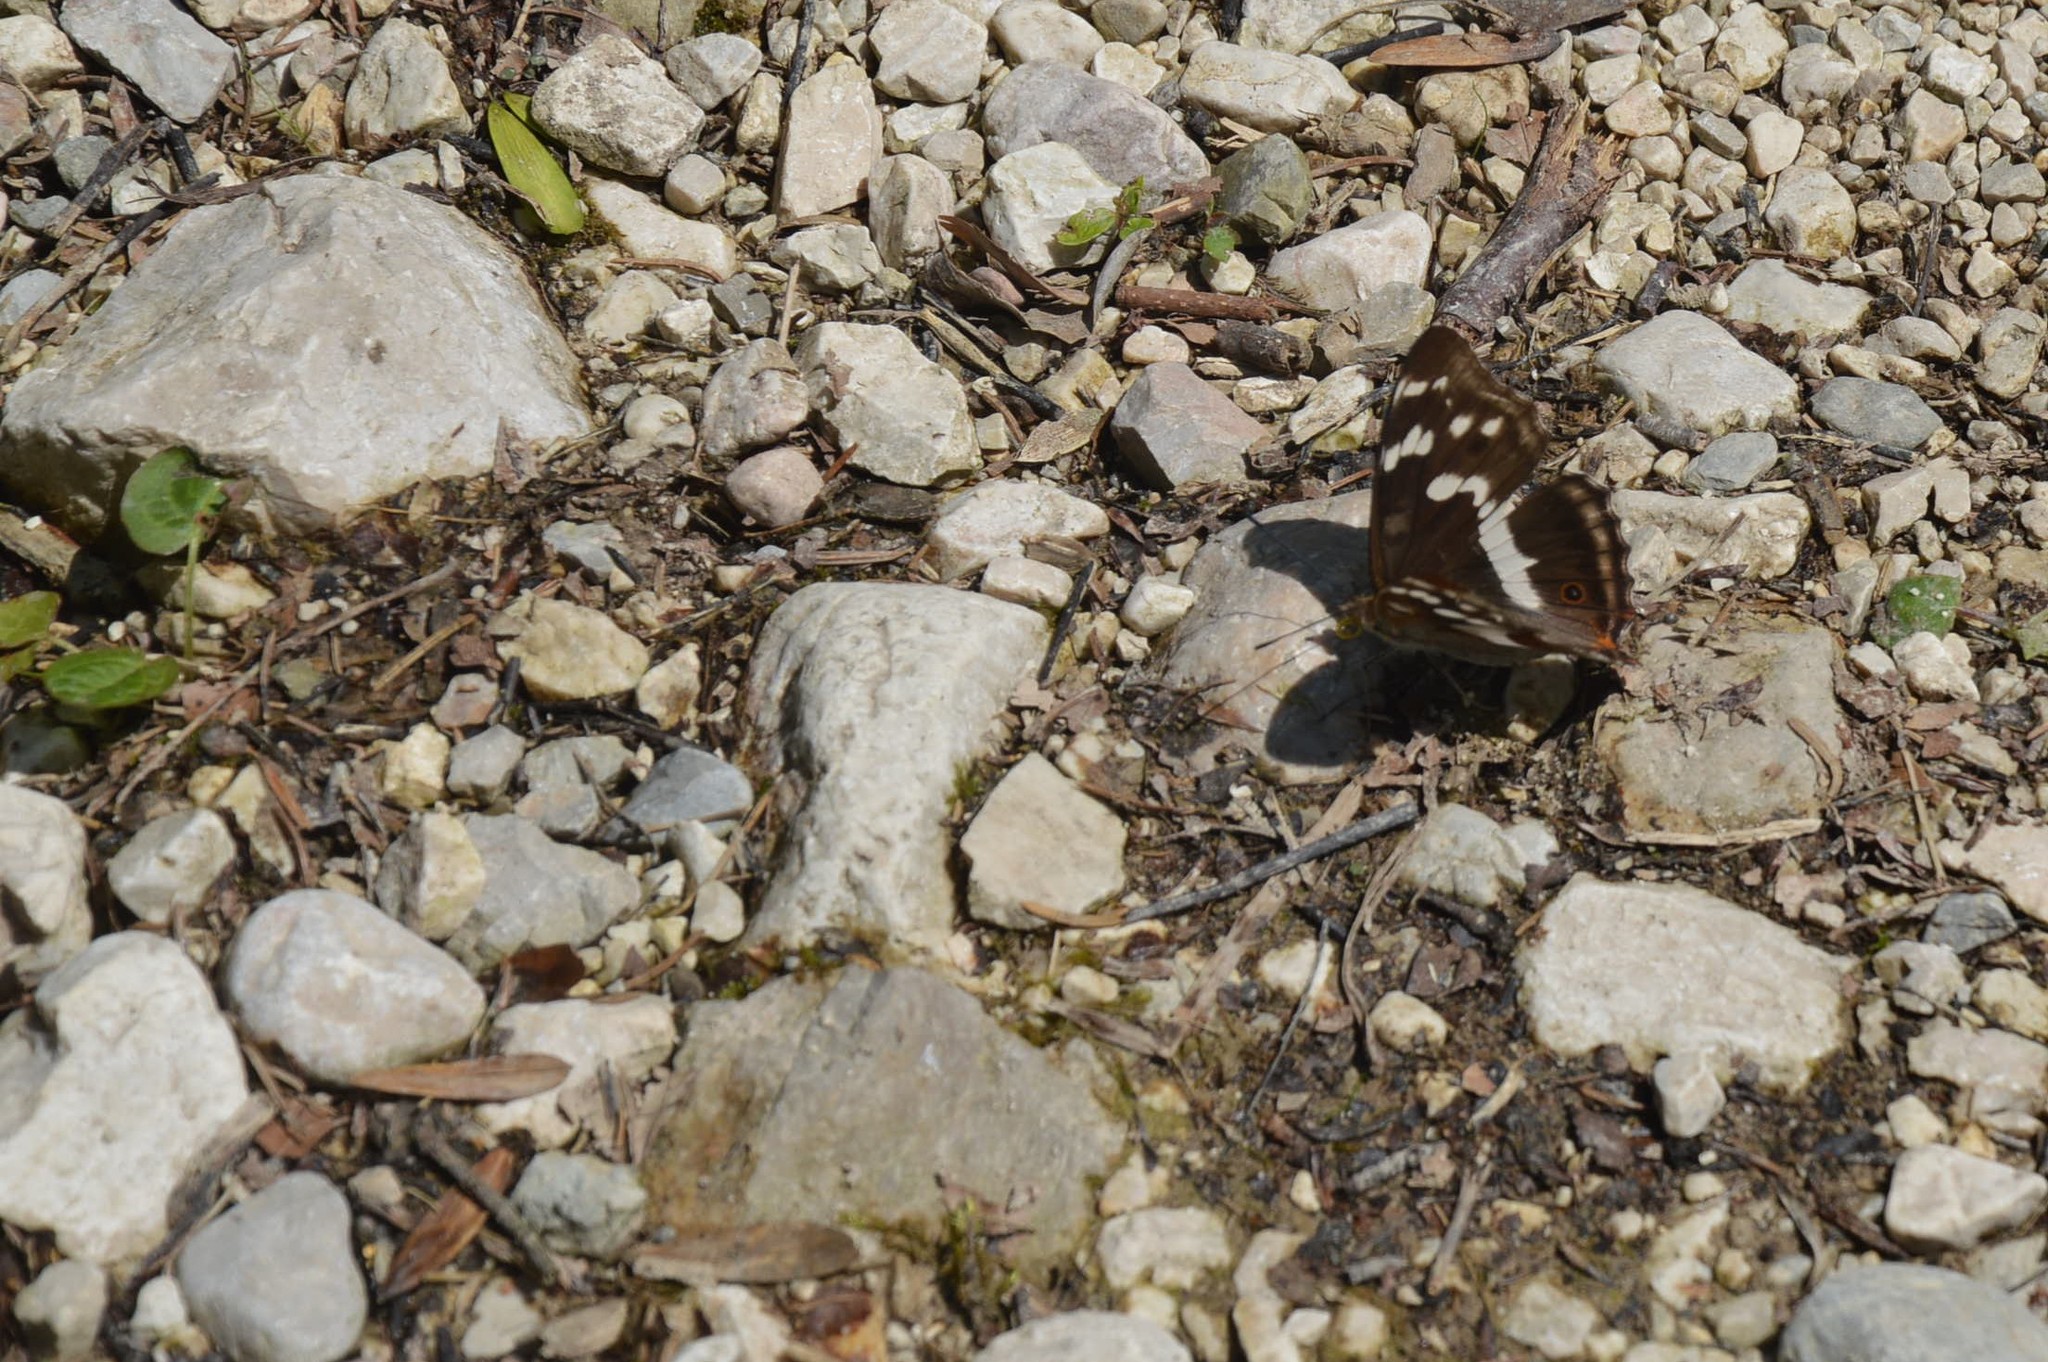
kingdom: Animalia
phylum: Arthropoda
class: Insecta
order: Lepidoptera
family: Nymphalidae
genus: Apatura
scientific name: Apatura iris
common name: Purple emperor
